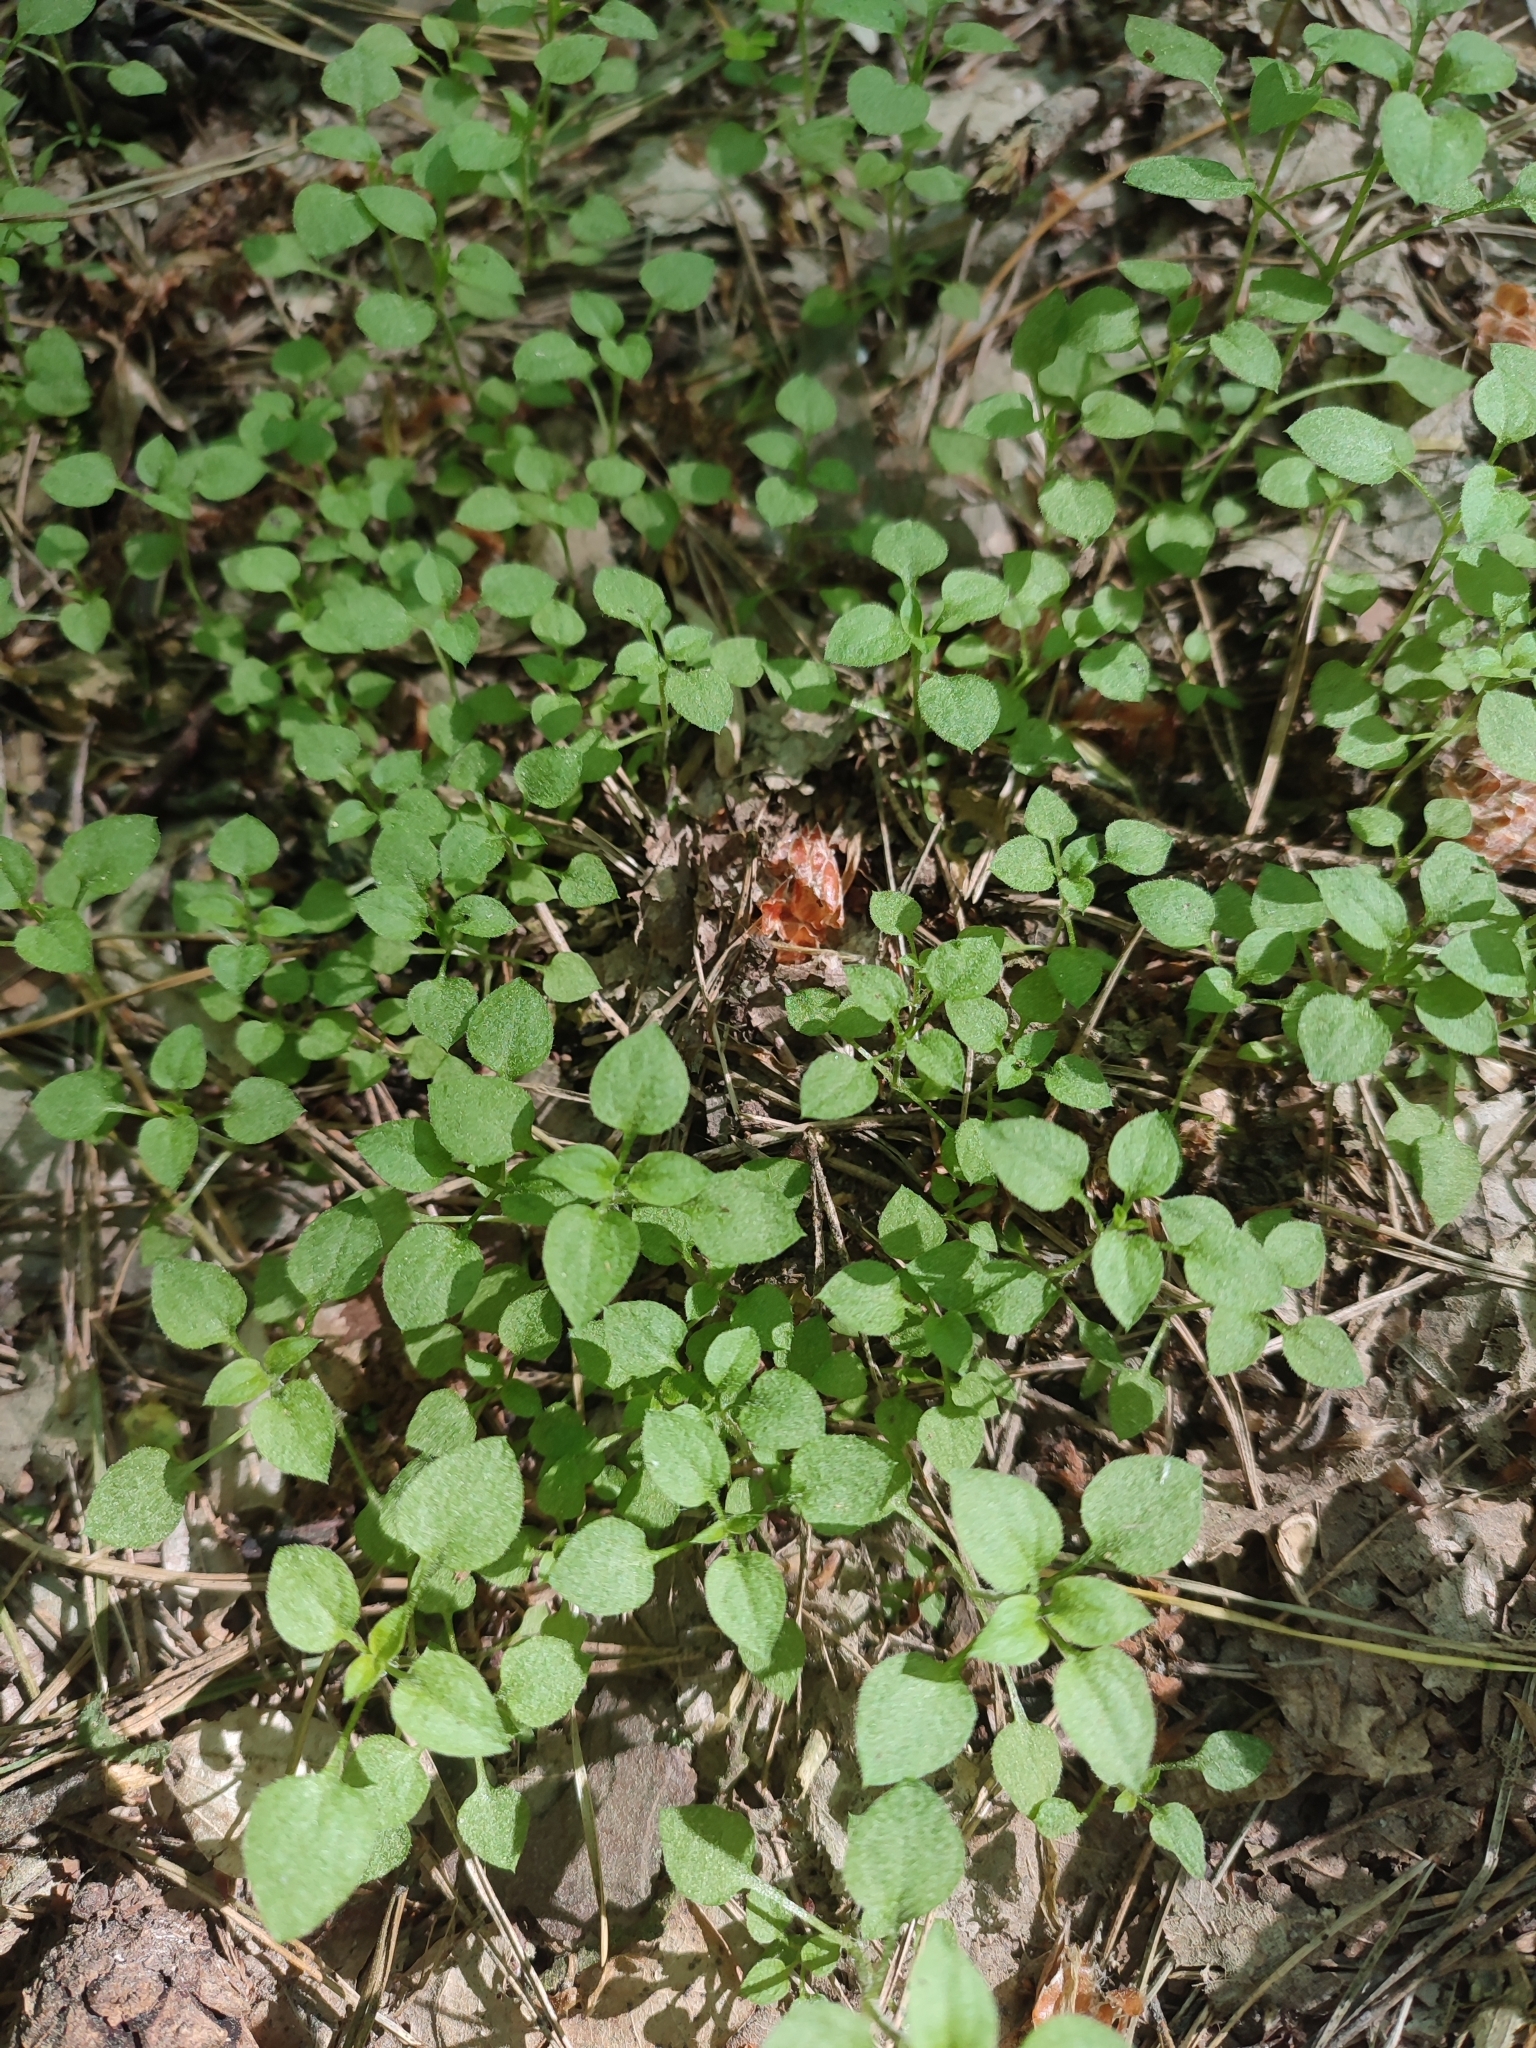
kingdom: Plantae
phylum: Tracheophyta
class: Magnoliopsida
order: Caryophyllales
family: Caryophyllaceae
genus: Moehringia
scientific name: Moehringia trinervia
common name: Three-nerved sandwort
